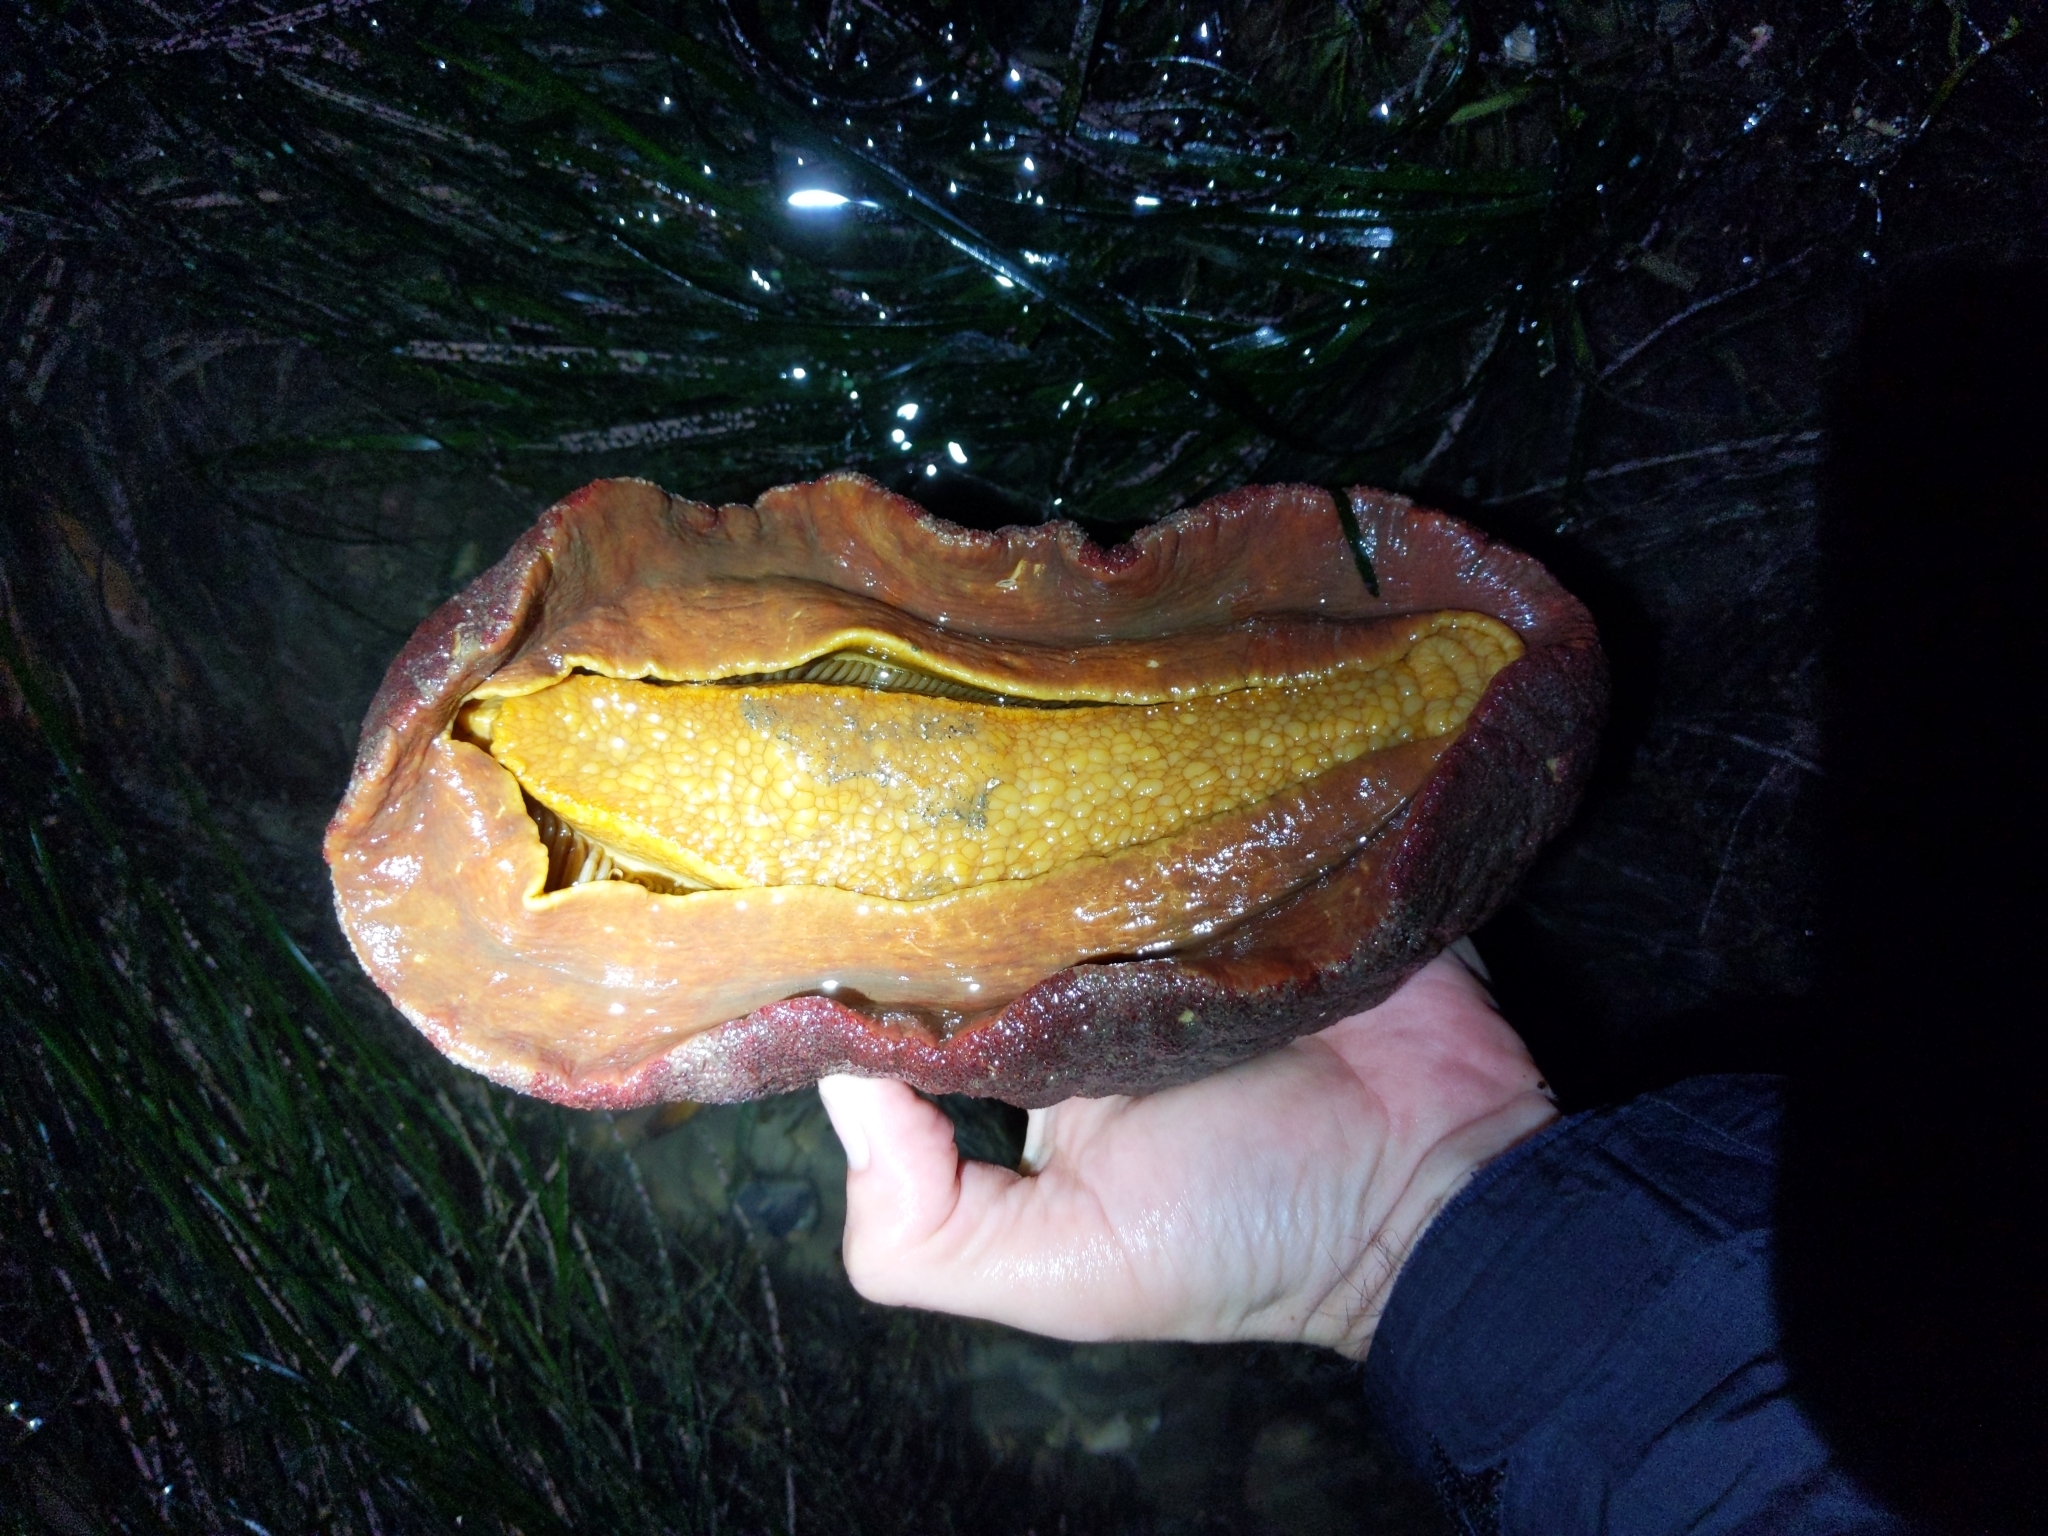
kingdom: Animalia
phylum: Mollusca
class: Polyplacophora
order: Chitonida
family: Acanthochitonidae
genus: Cryptochiton
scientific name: Cryptochiton stelleri
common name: Giant pacific chiton
